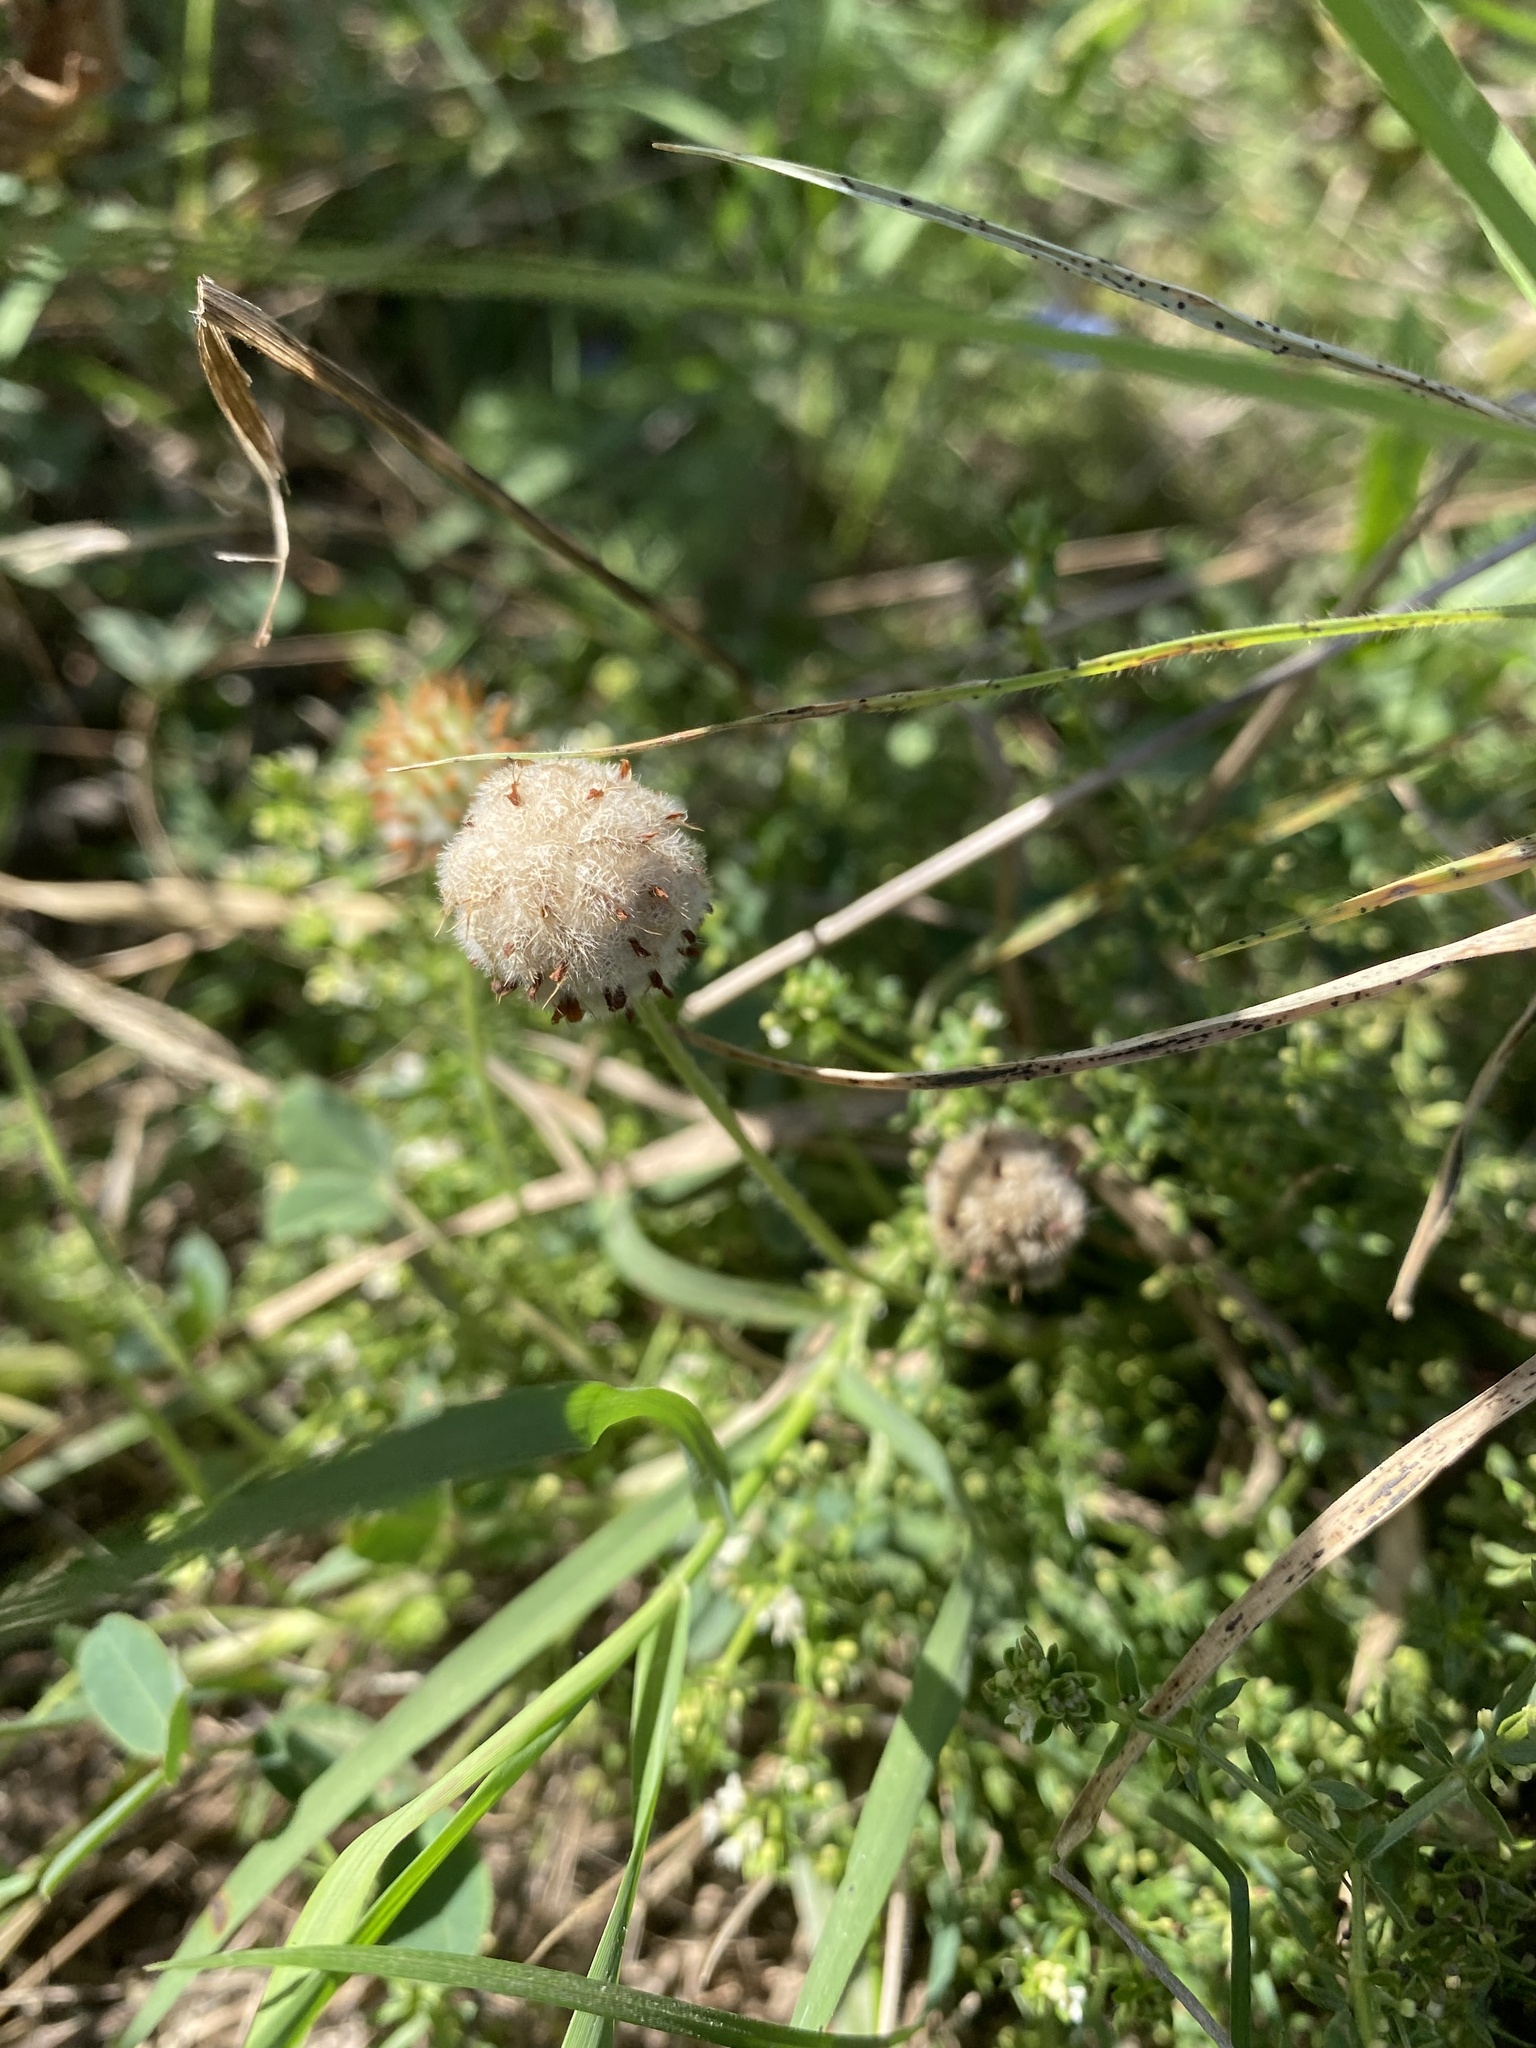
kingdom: Plantae
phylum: Tracheophyta
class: Magnoliopsida
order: Fabales
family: Fabaceae
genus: Trifolium
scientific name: Trifolium fragiferum
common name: Strawberry clover
